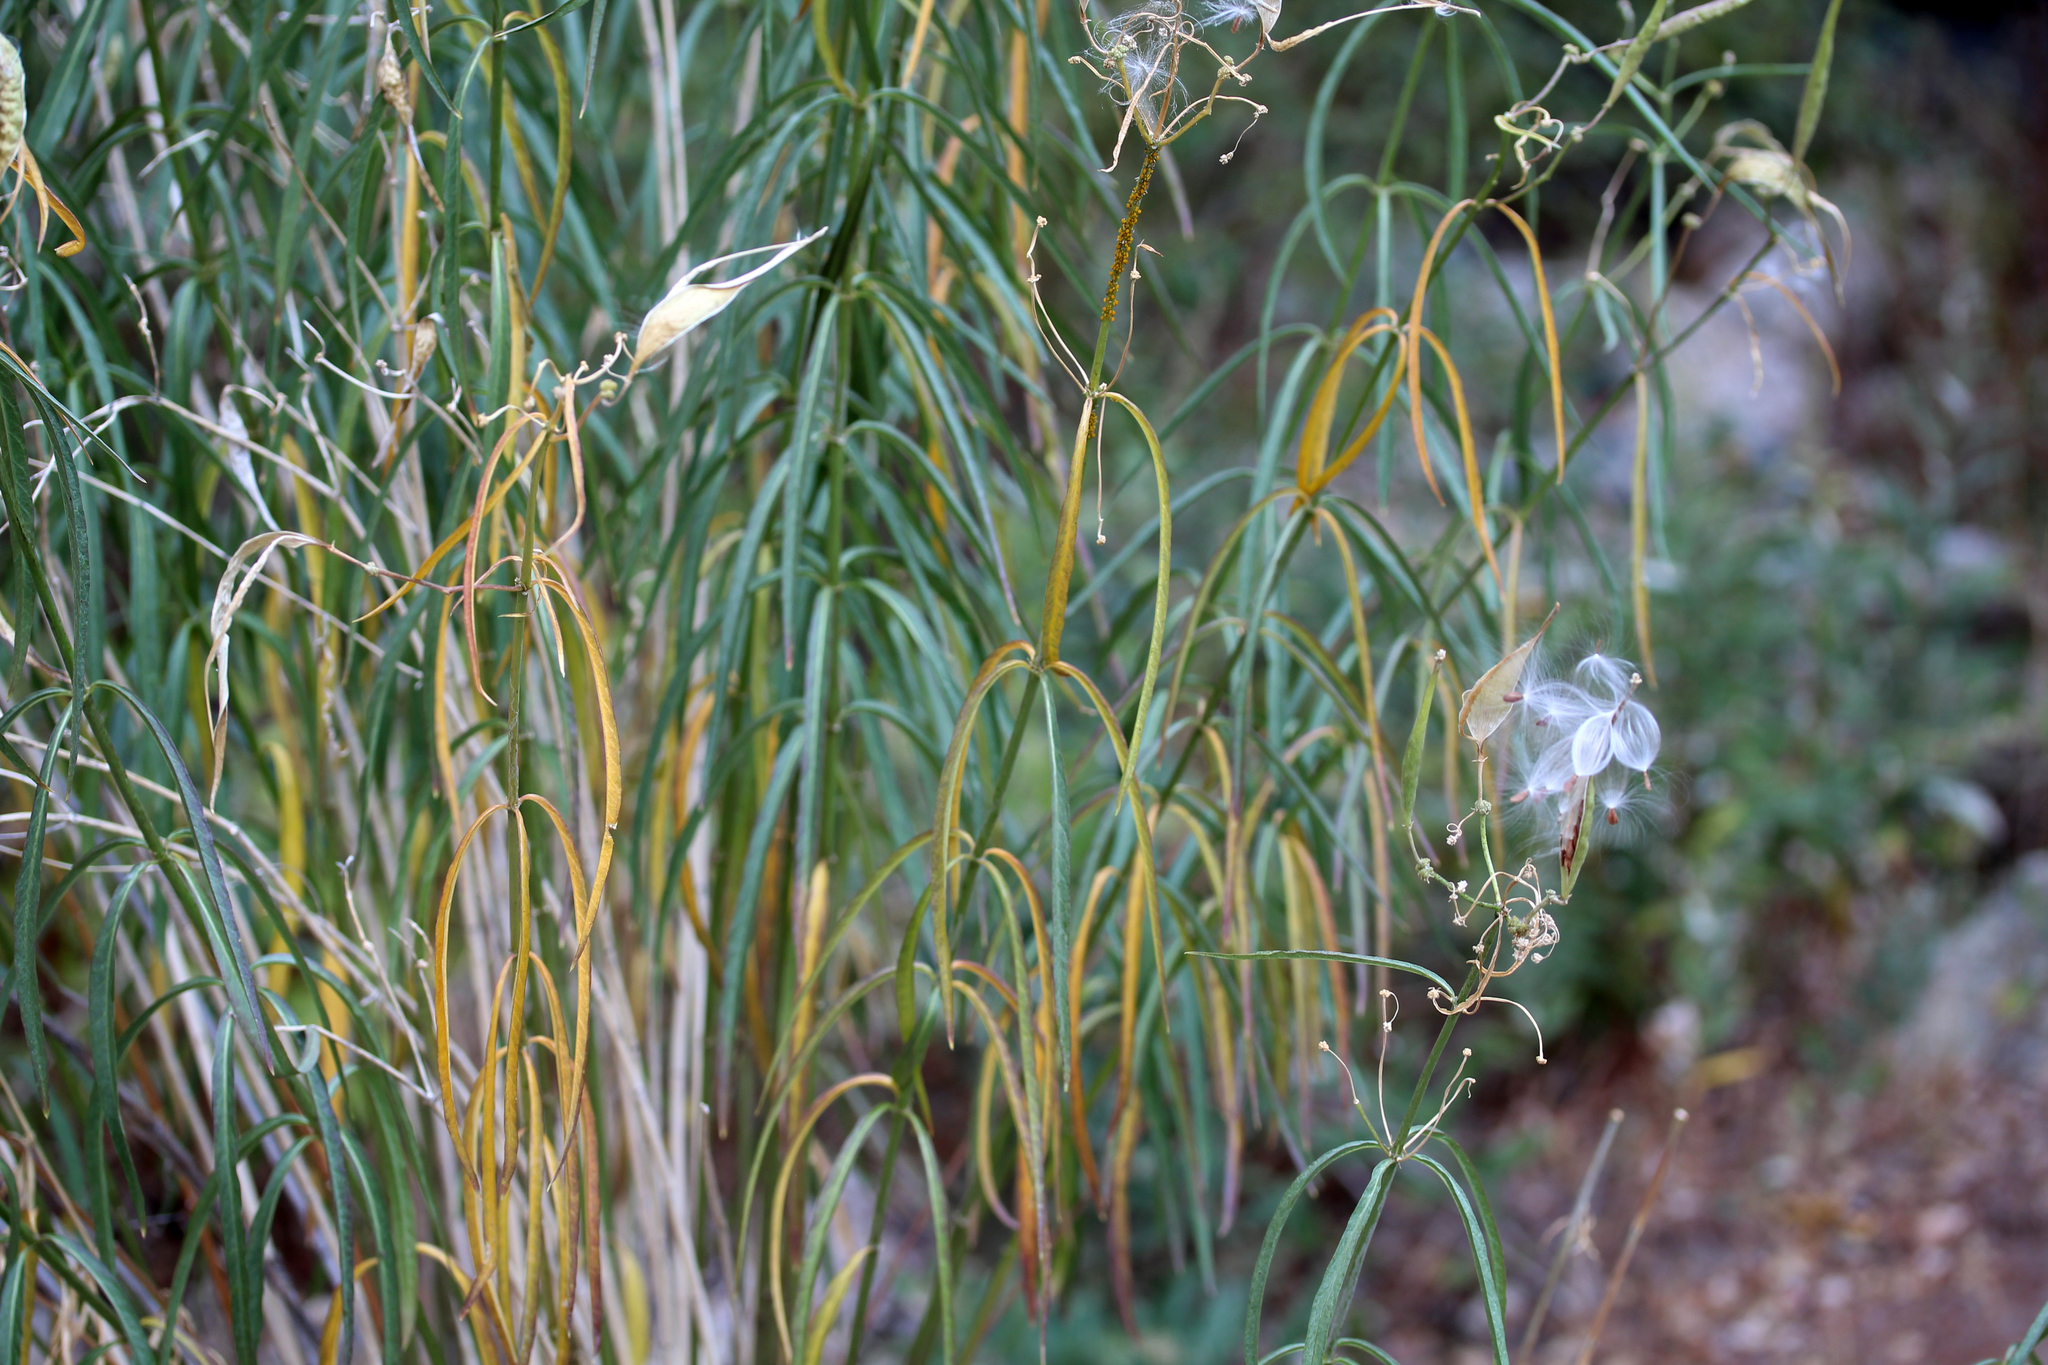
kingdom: Plantae
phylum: Tracheophyta
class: Magnoliopsida
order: Gentianales
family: Apocynaceae
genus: Asclepias
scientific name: Asclepias fascicularis
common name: Mexican milkweed
